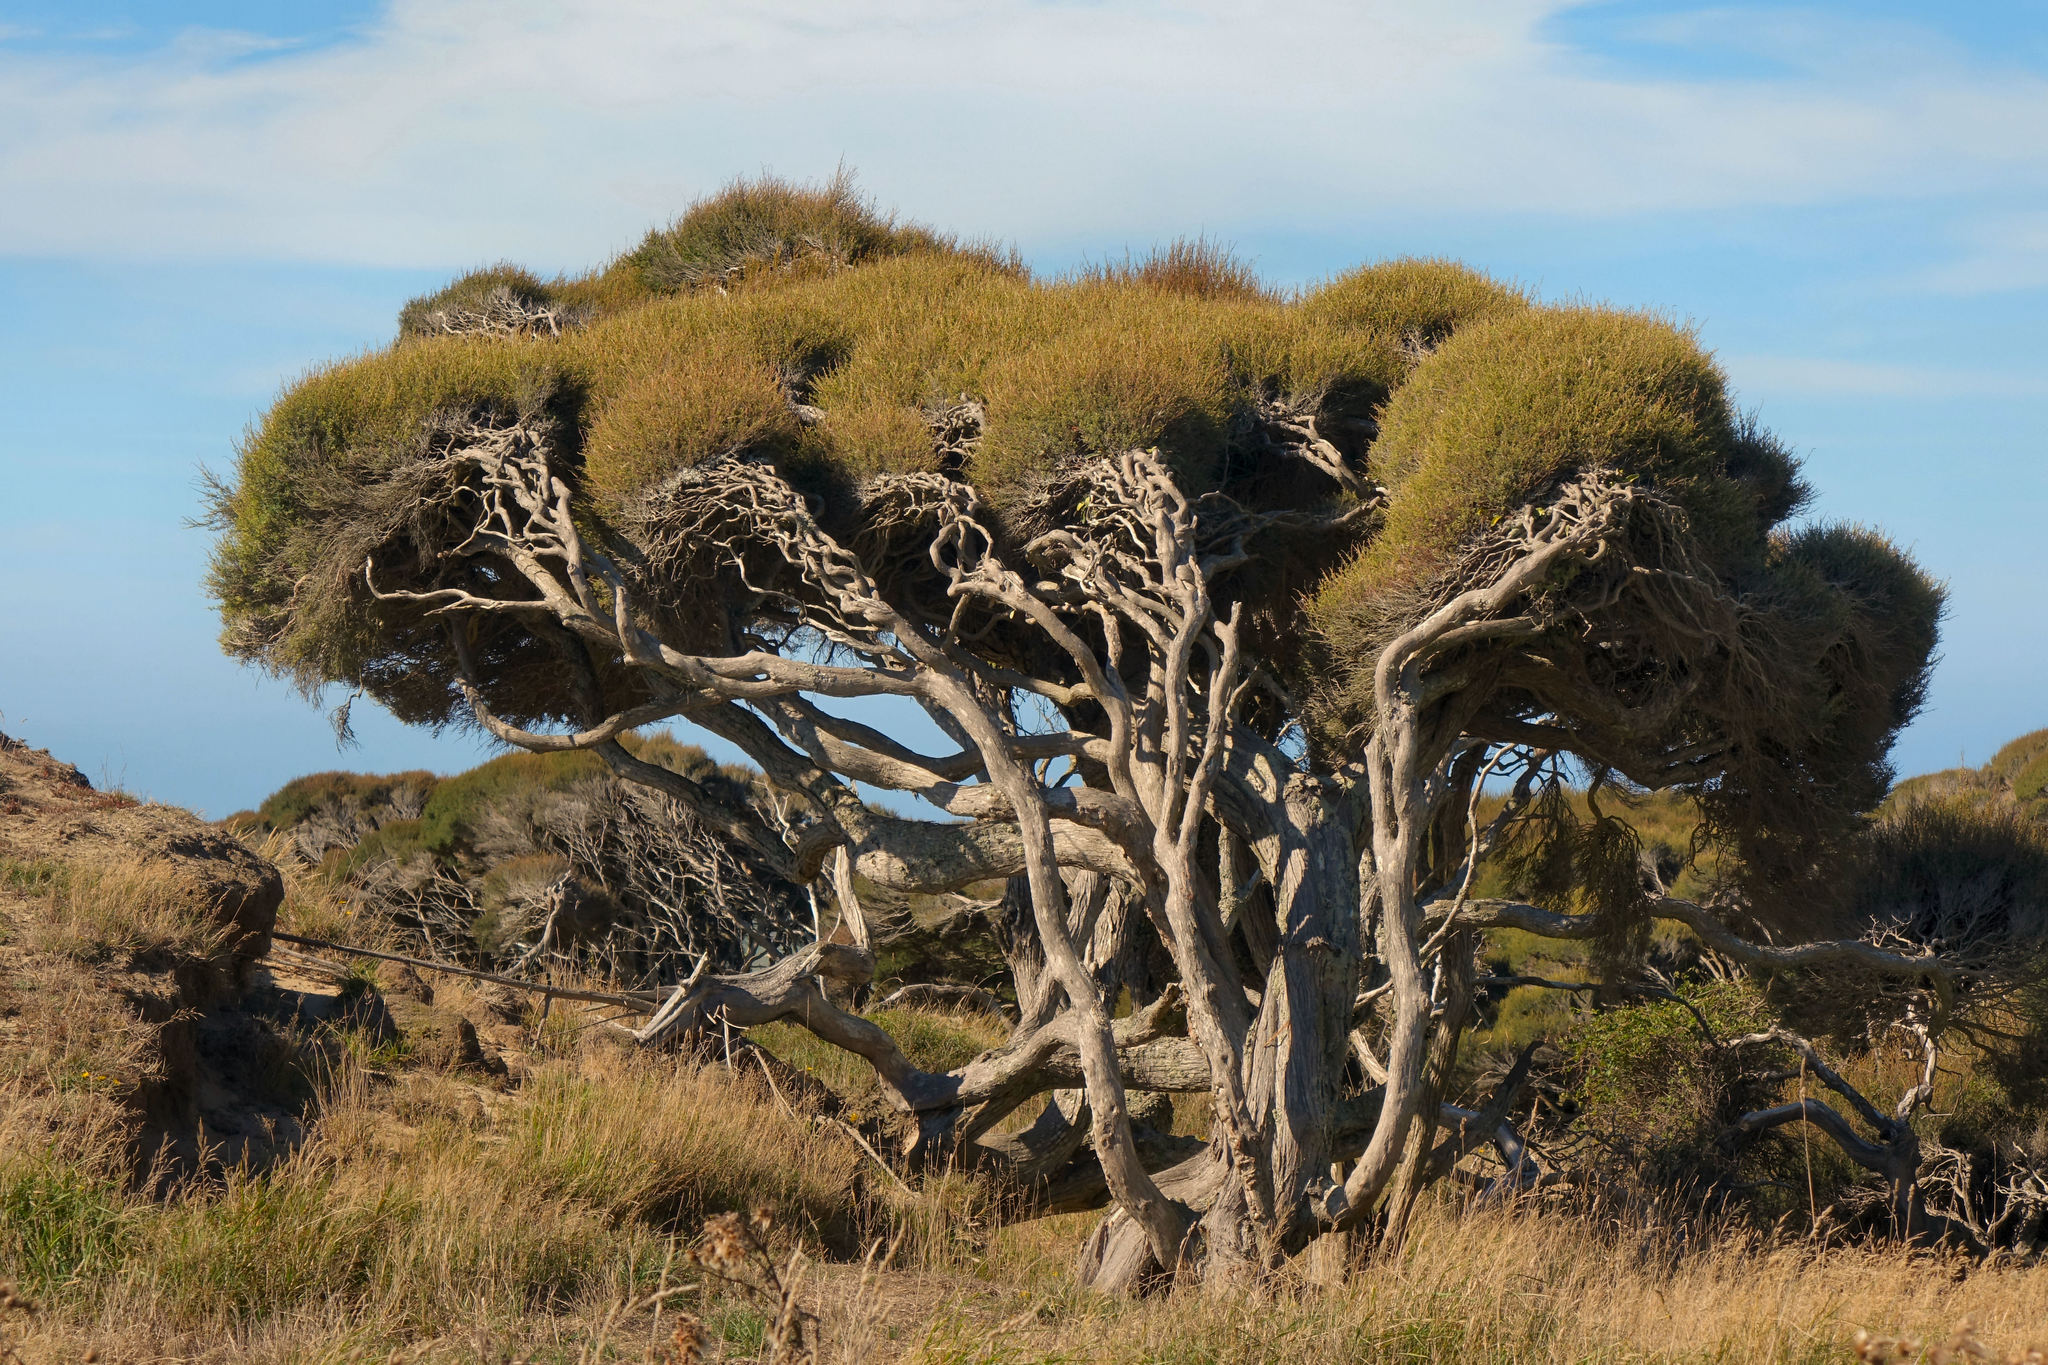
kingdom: Plantae
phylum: Tracheophyta
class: Magnoliopsida
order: Myrtales
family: Myrtaceae
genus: Kunzea
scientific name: Kunzea robusta
